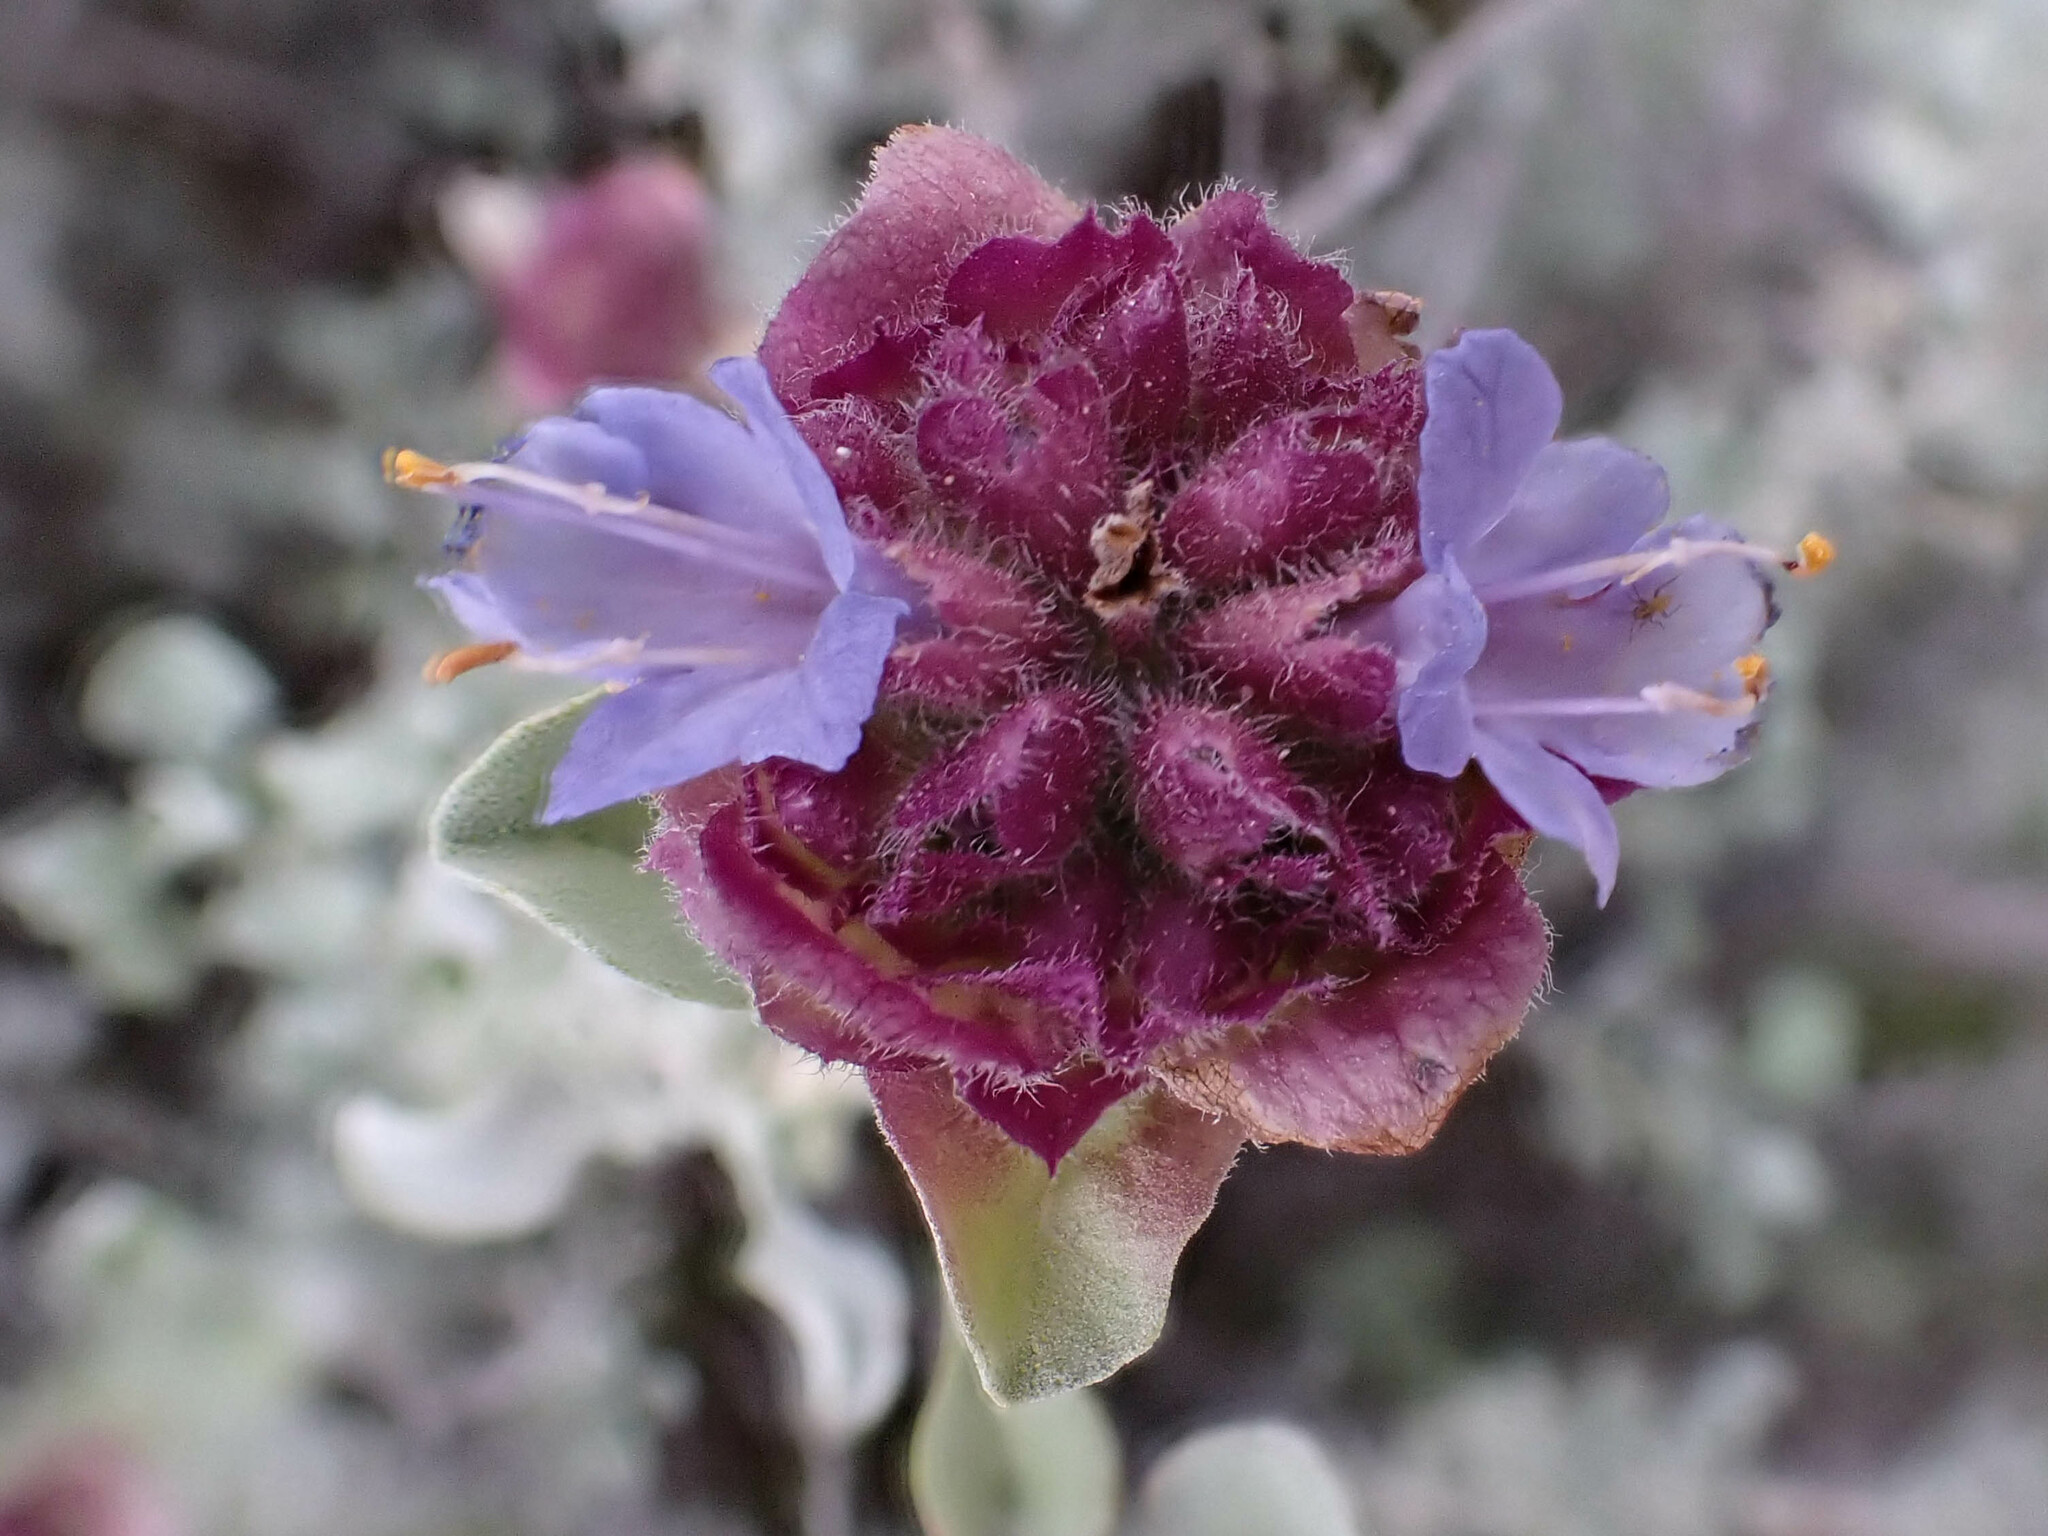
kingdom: Plantae
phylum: Tracheophyta
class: Magnoliopsida
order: Lamiales
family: Lamiaceae
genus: Salvia
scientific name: Salvia dorrii
